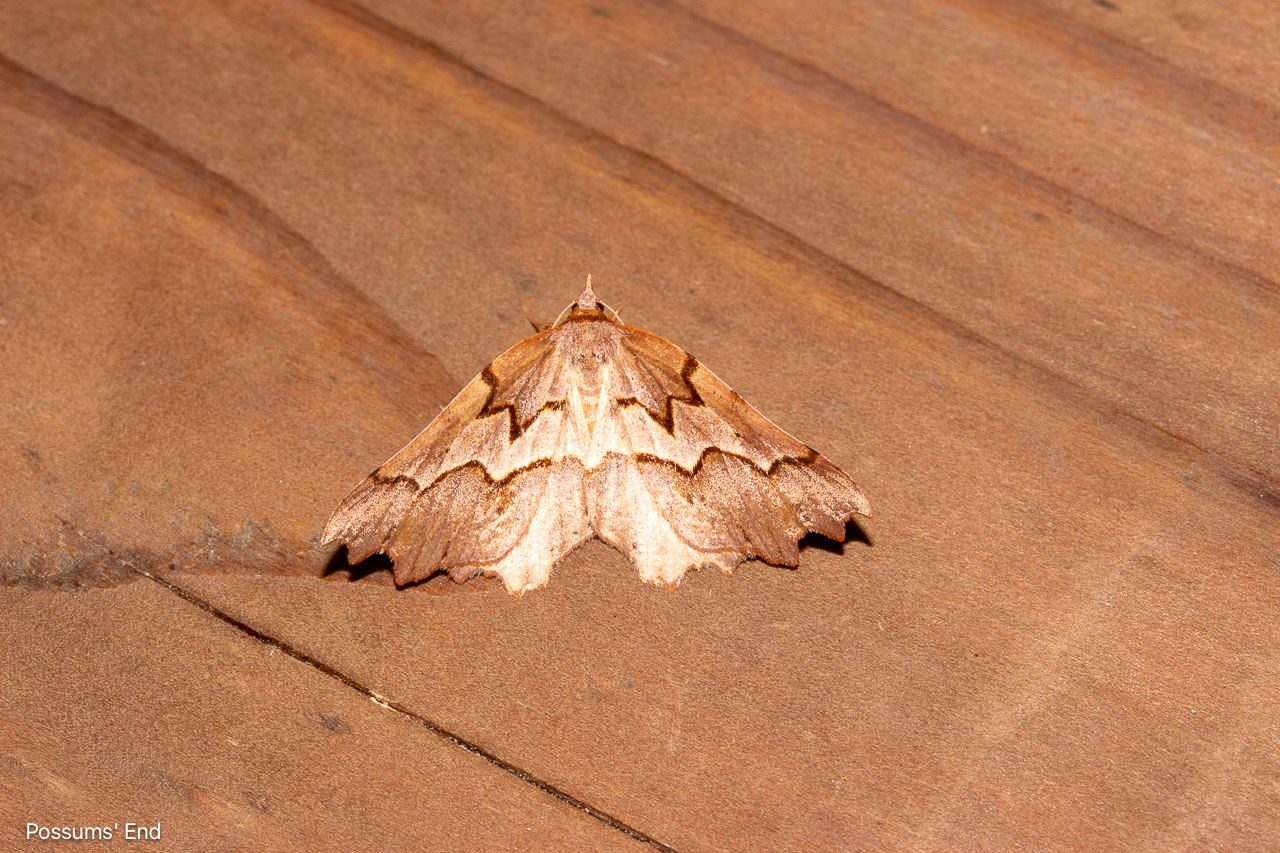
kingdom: Animalia
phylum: Arthropoda
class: Insecta
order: Lepidoptera
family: Geometridae
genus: Ischalis
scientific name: Ischalis fortinata
